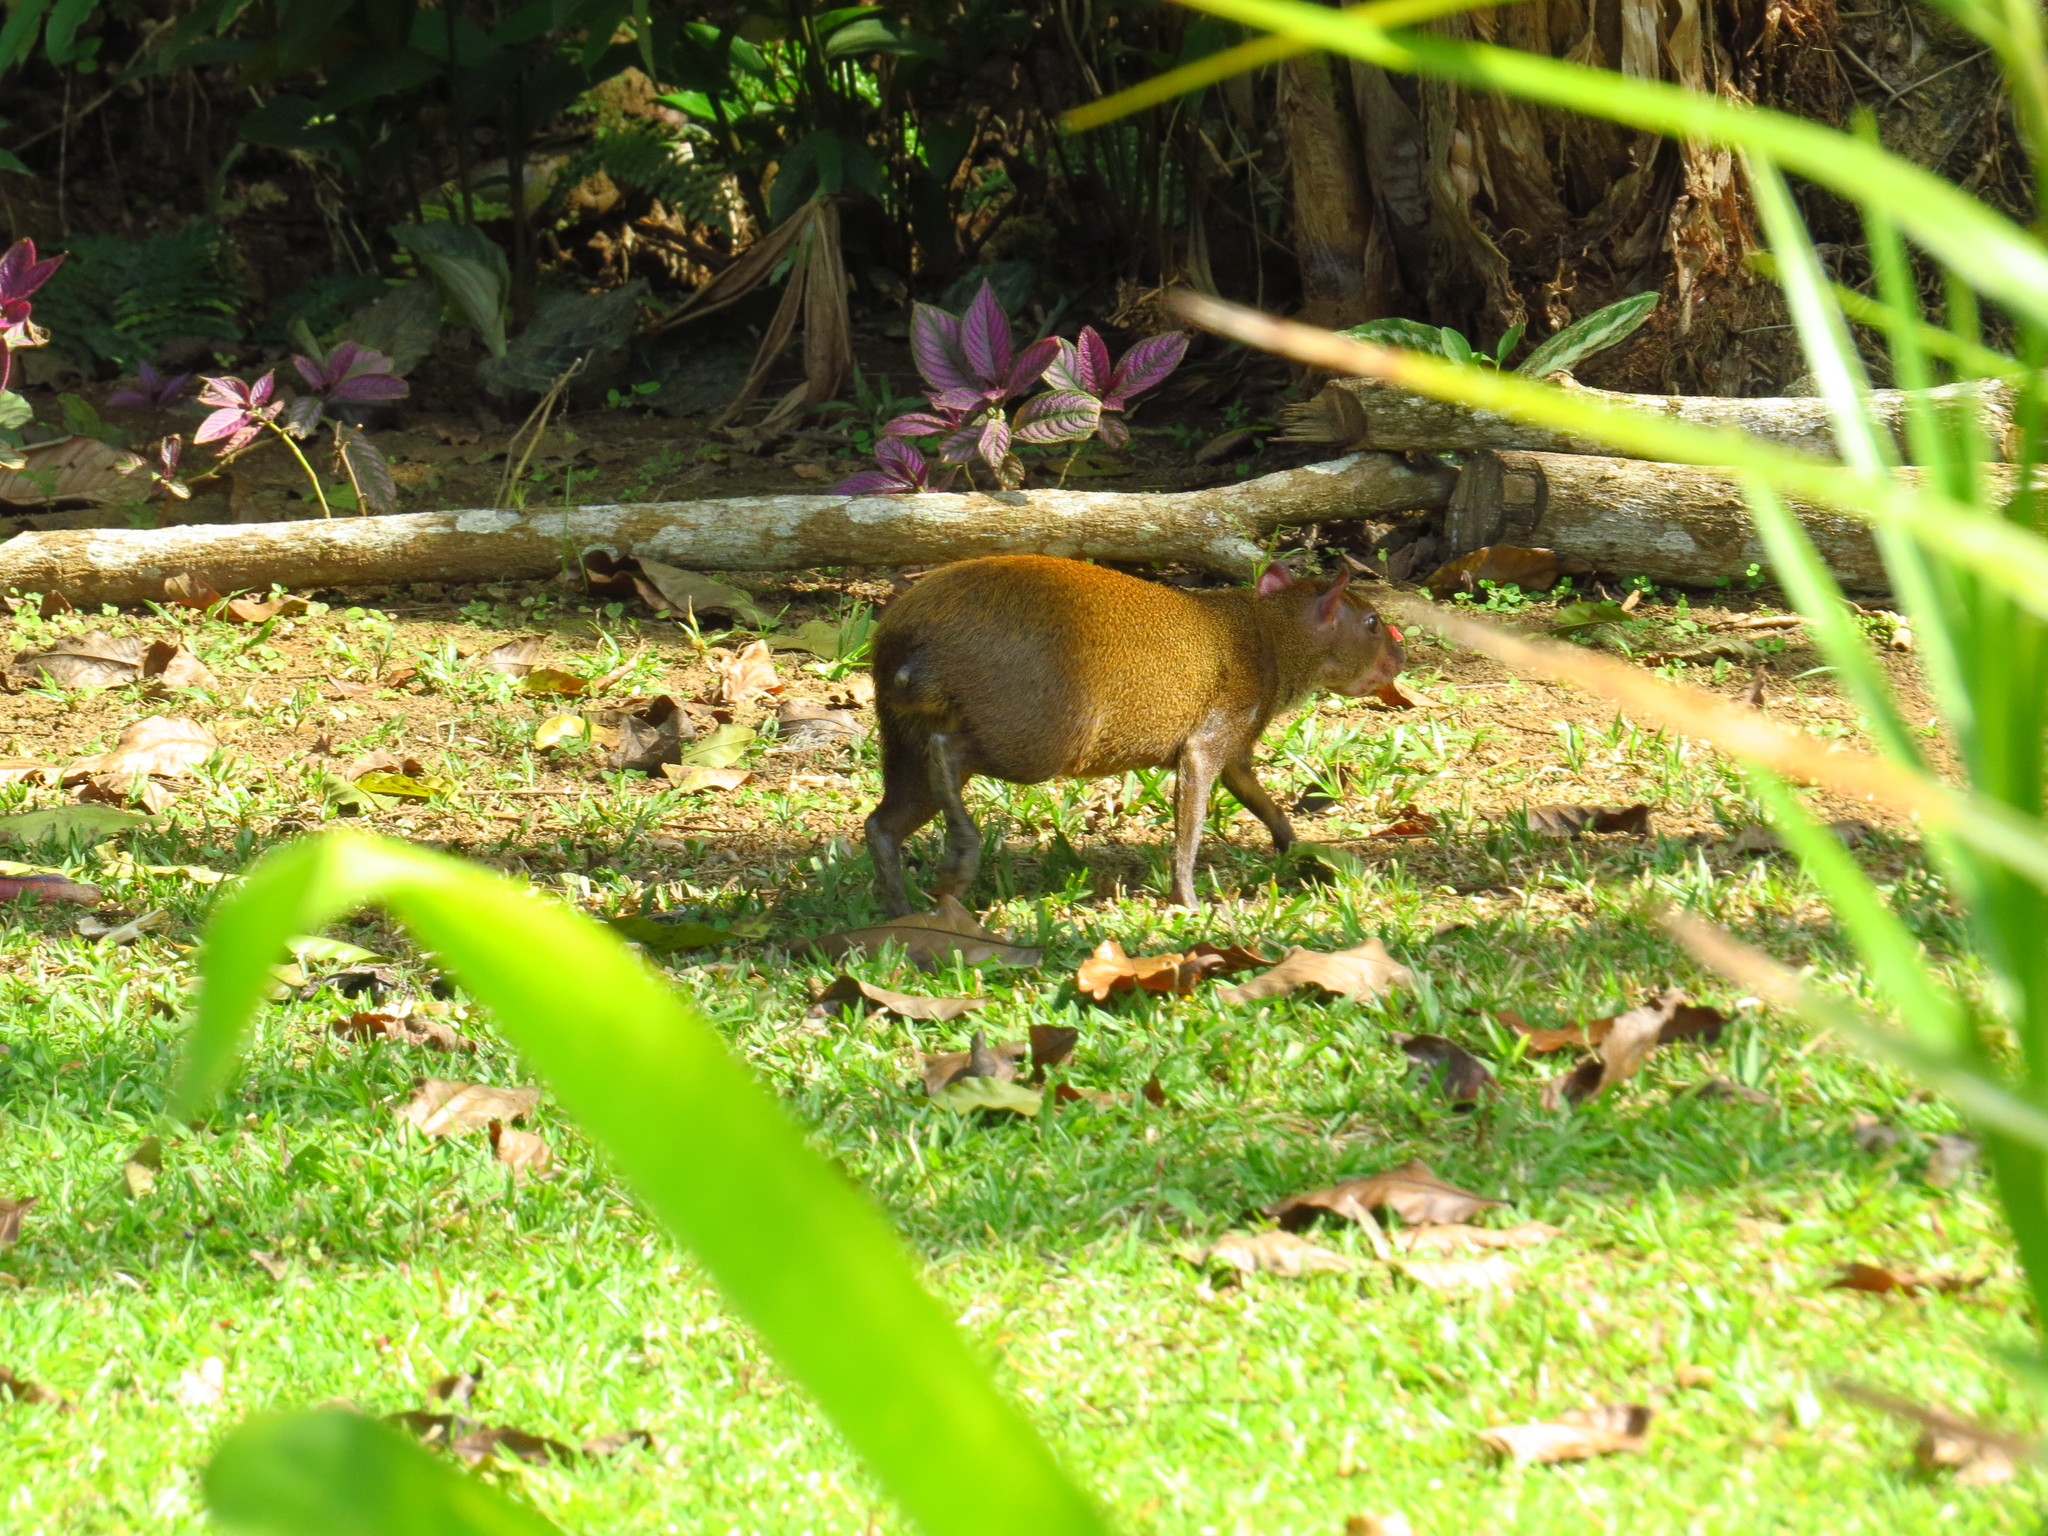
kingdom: Animalia
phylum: Chordata
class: Mammalia
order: Rodentia
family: Dasyproctidae
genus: Dasyprocta
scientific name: Dasyprocta punctata
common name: Central american agouti
